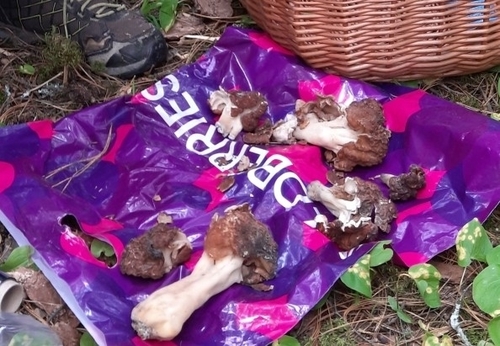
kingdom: Fungi
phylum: Ascomycota
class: Pezizomycetes
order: Pezizales
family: Discinaceae
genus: Gyromitra
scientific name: Gyromitra
